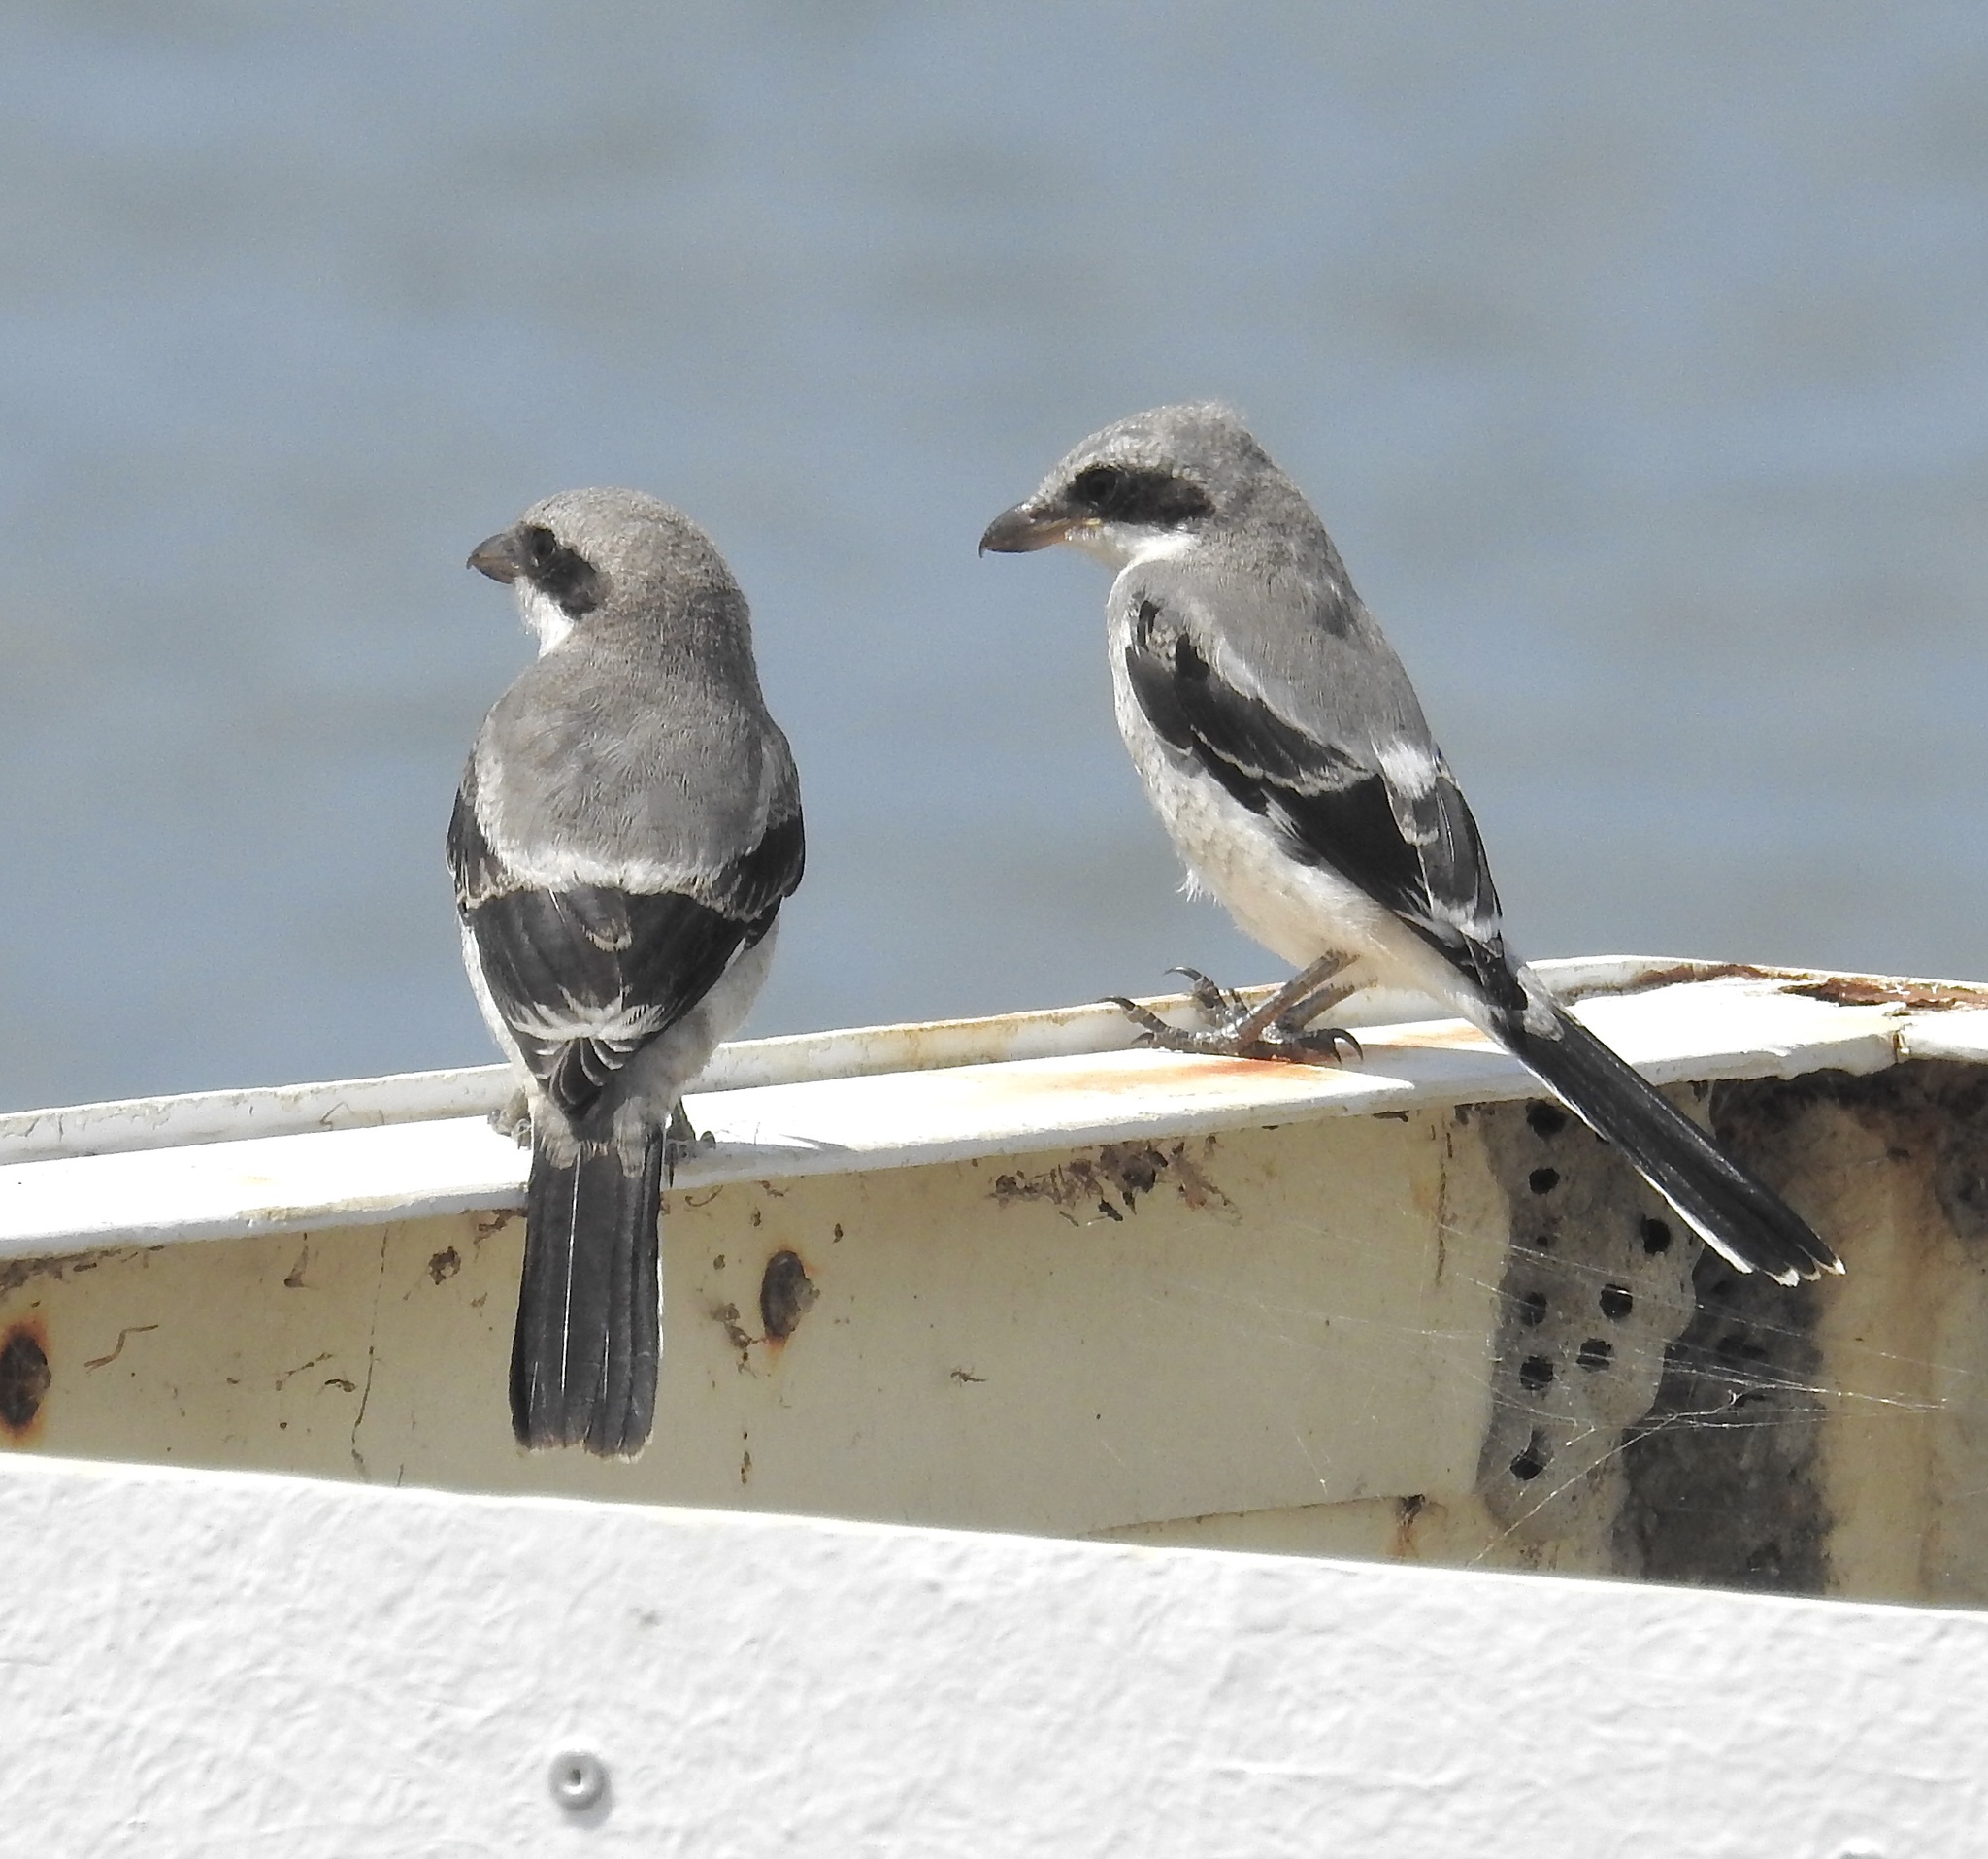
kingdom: Animalia
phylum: Chordata
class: Aves
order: Passeriformes
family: Laniidae
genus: Lanius
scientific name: Lanius ludovicianus
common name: Loggerhead shrike
